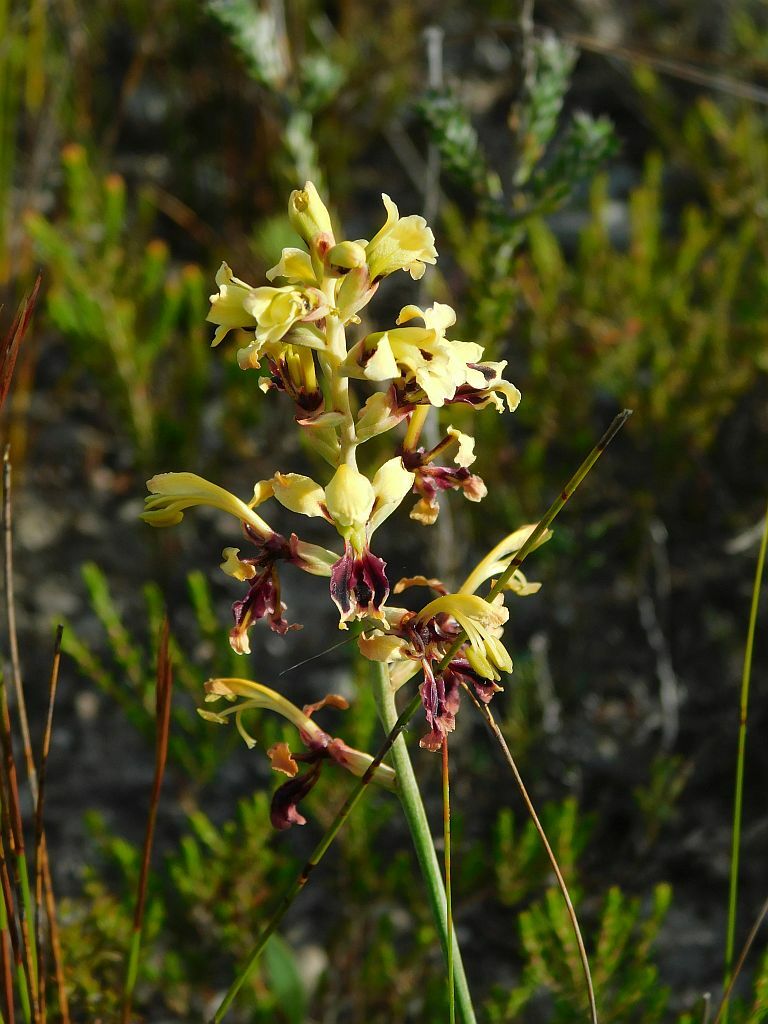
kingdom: Plantae
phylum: Tracheophyta
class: Liliopsida
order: Asparagales
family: Iridaceae
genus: Tritoniopsis
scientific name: Tritoniopsis parviflora
